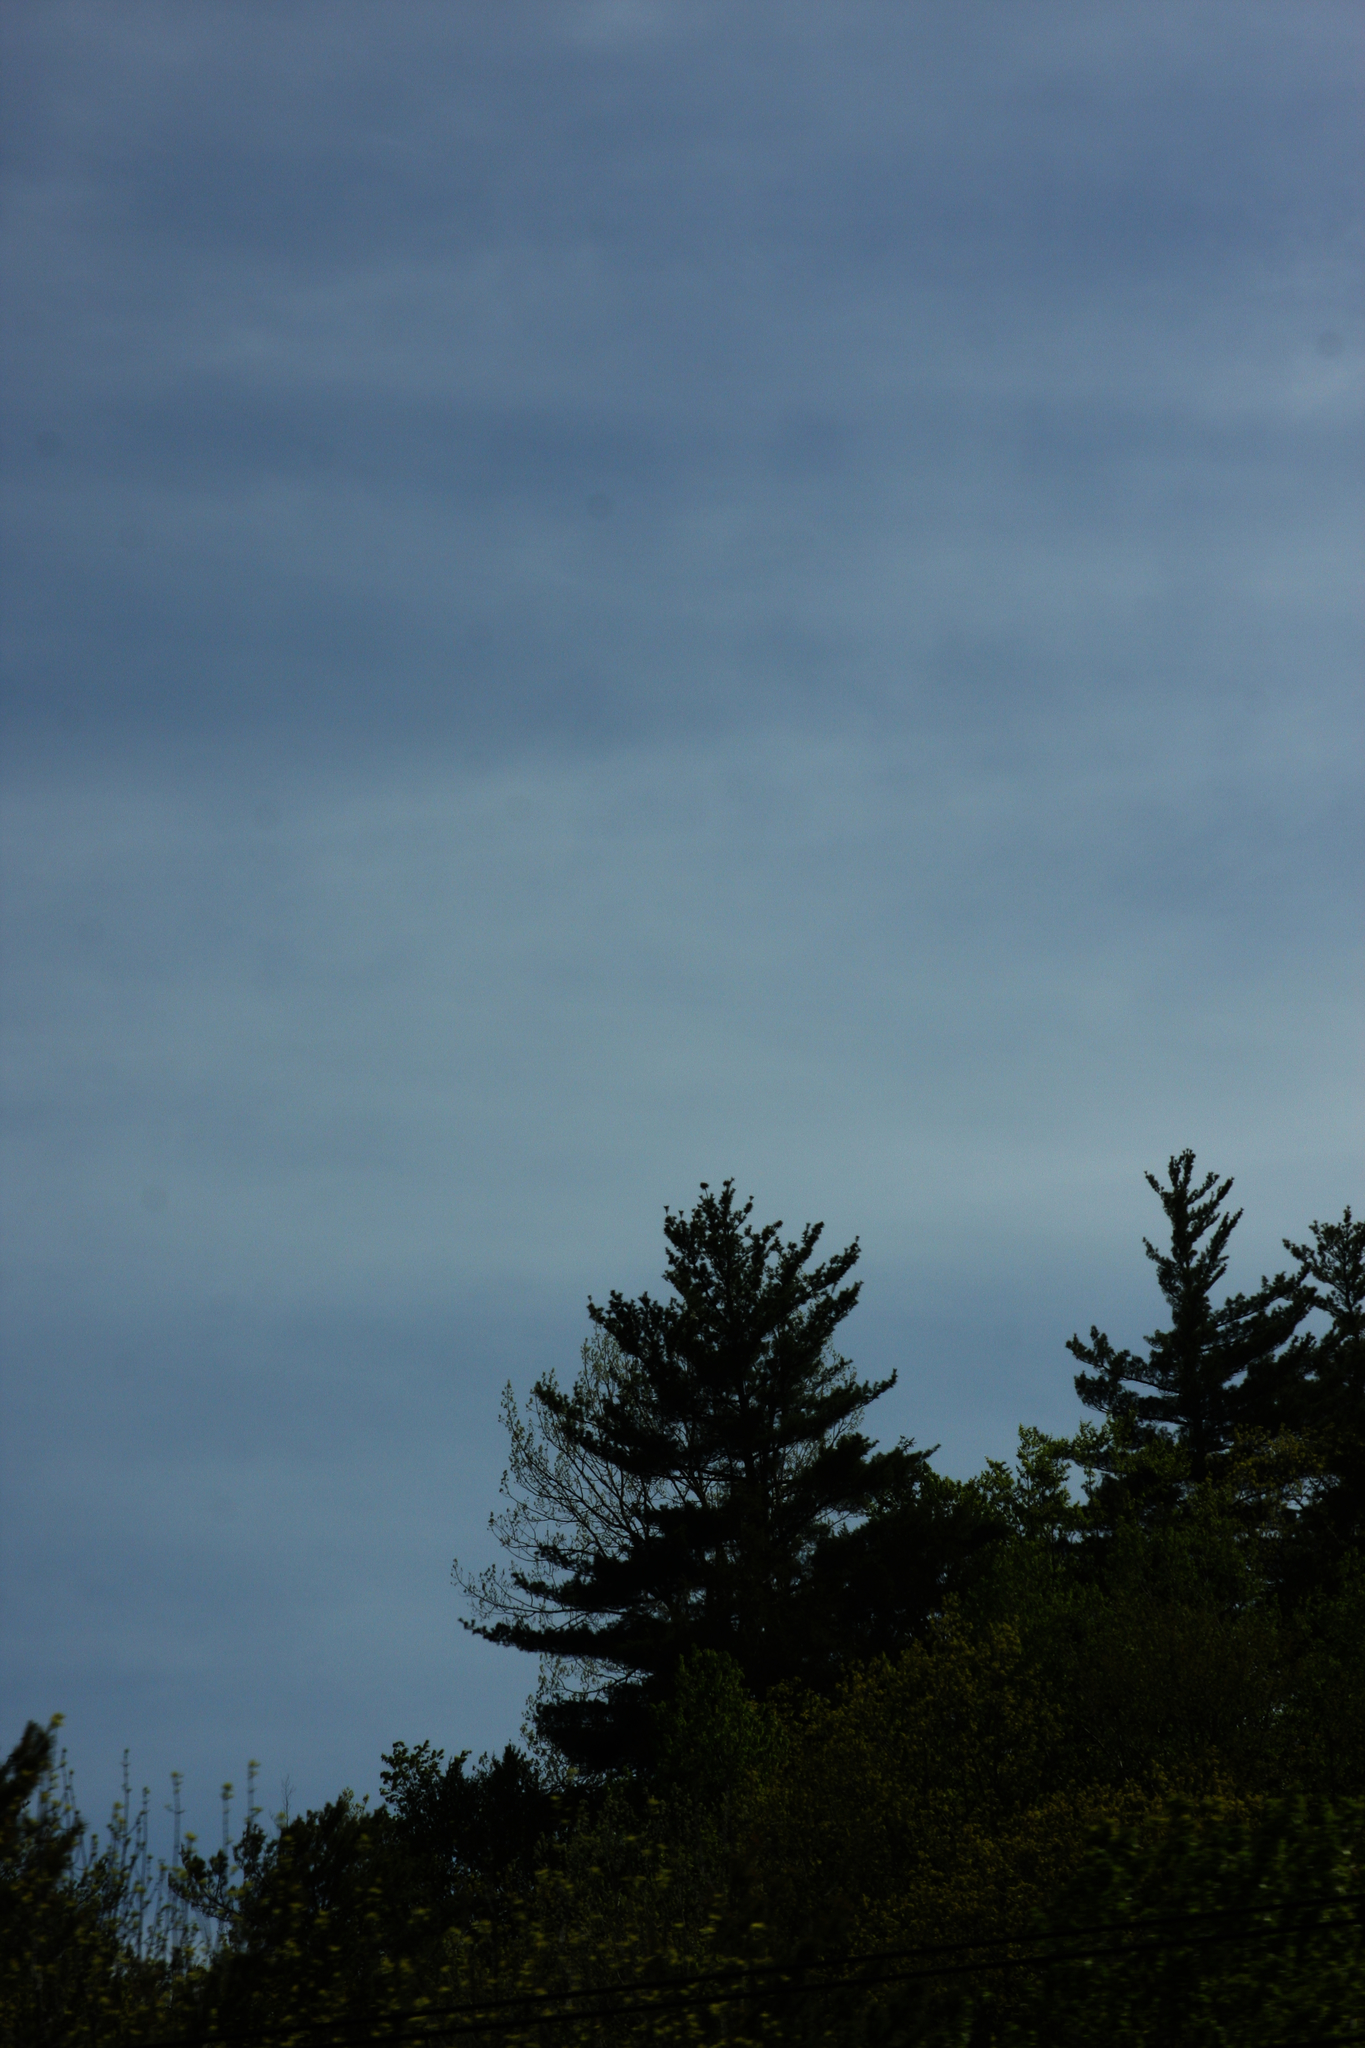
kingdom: Plantae
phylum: Tracheophyta
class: Pinopsida
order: Pinales
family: Pinaceae
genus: Pinus
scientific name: Pinus strobus
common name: Weymouth pine
